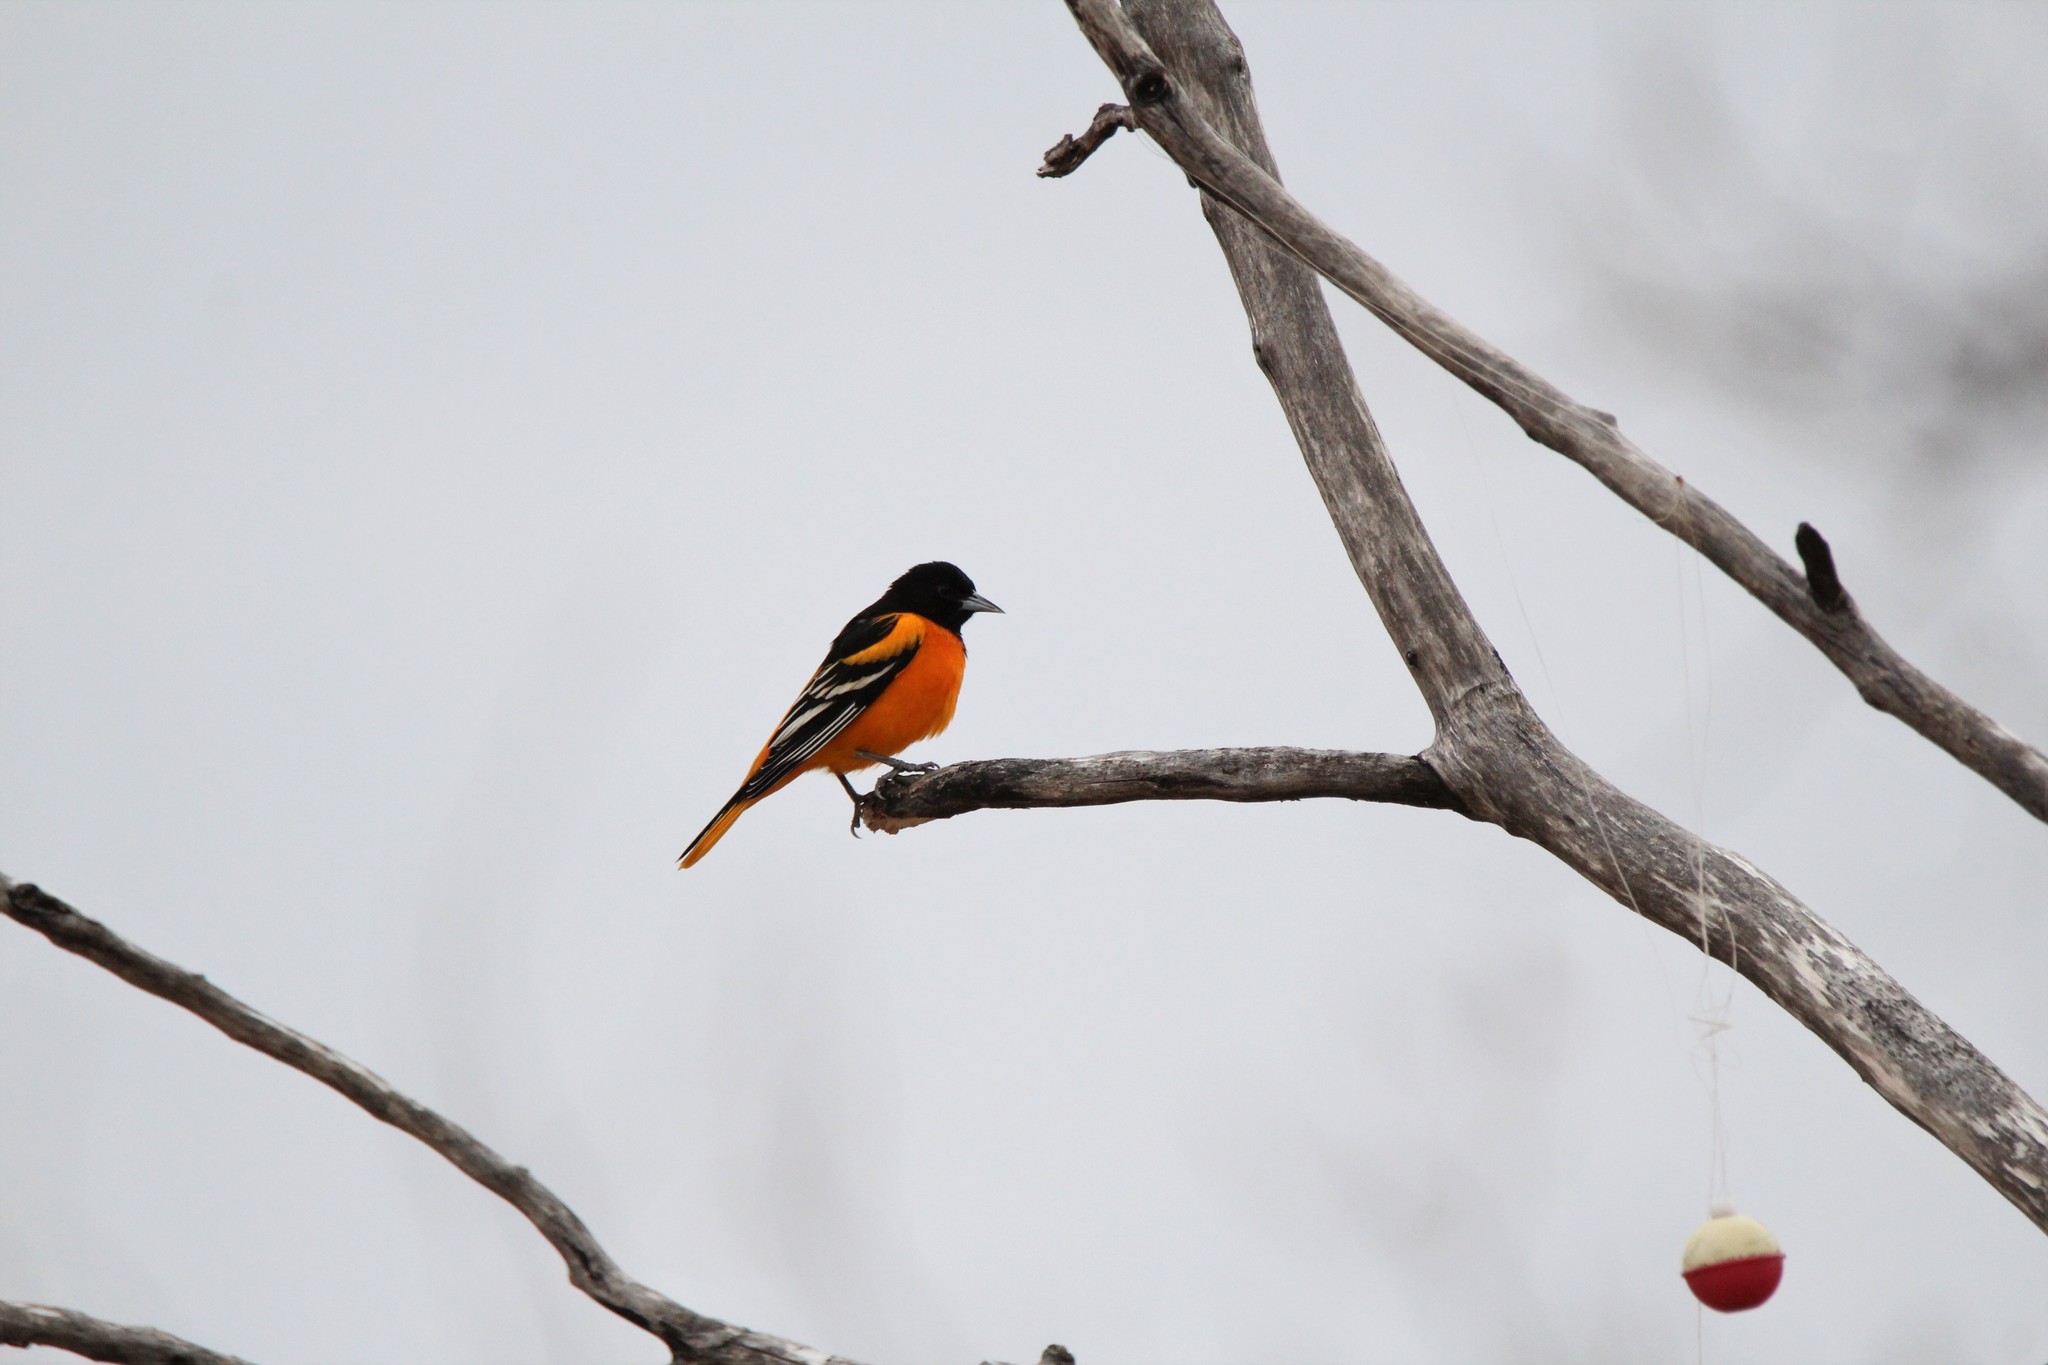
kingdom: Animalia
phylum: Chordata
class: Aves
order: Passeriformes
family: Icteridae
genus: Icterus
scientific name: Icterus galbula
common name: Baltimore oriole
